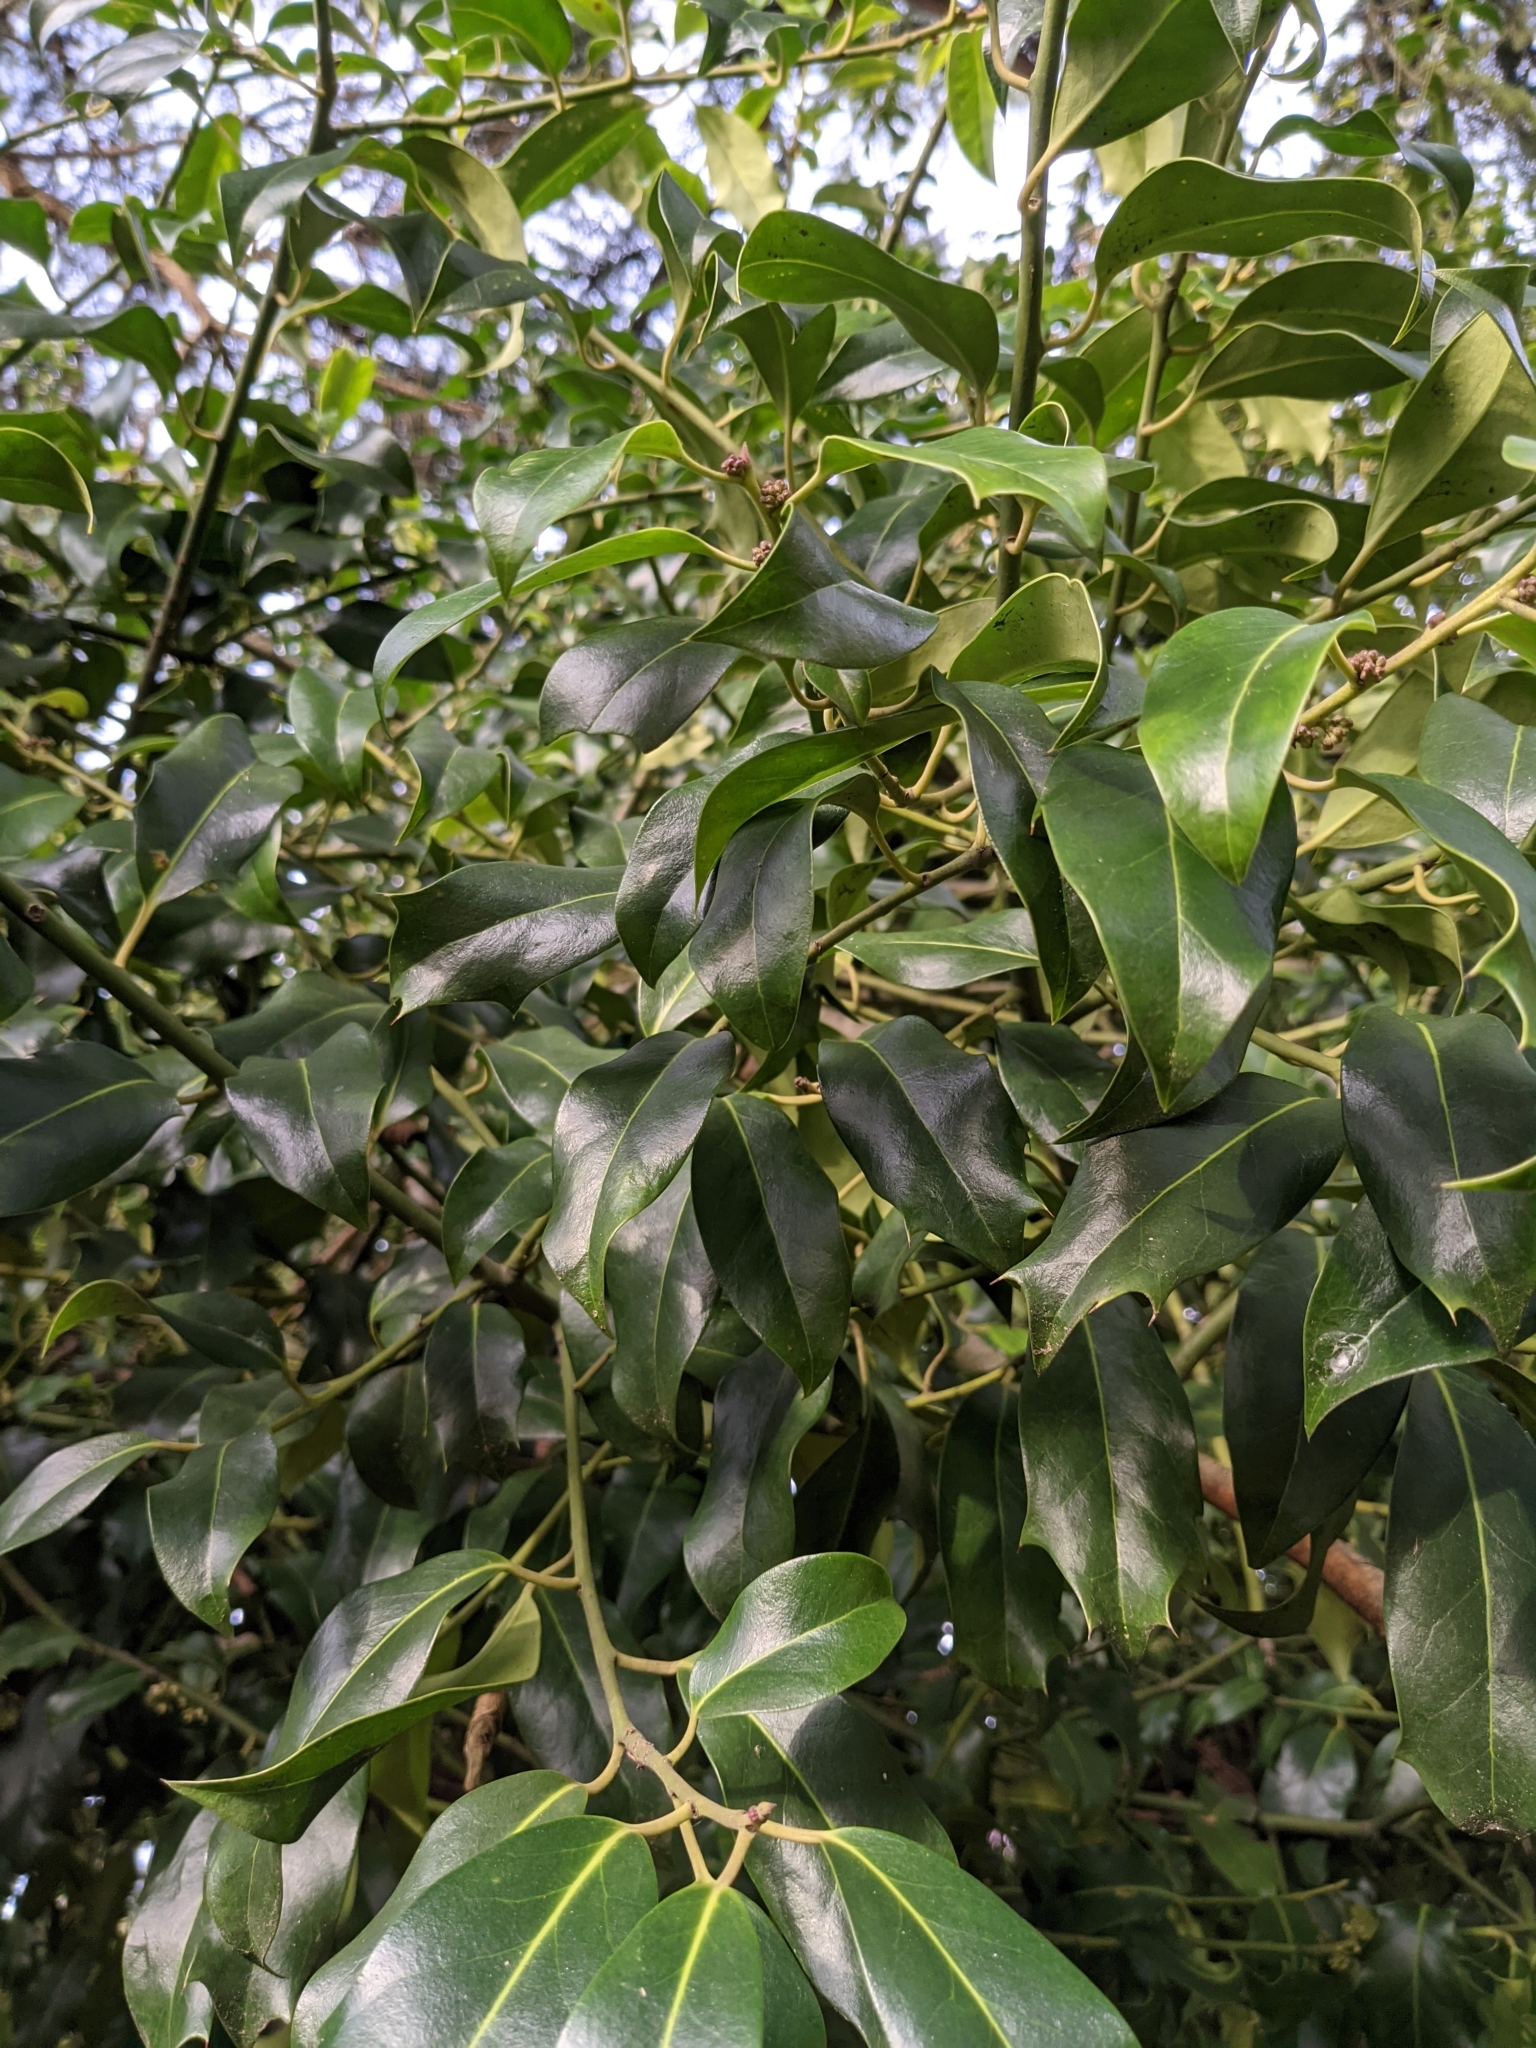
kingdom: Plantae
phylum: Tracheophyta
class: Magnoliopsida
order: Aquifoliales
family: Aquifoliaceae
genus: Ilex
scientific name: Ilex aquifolium
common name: English holly
